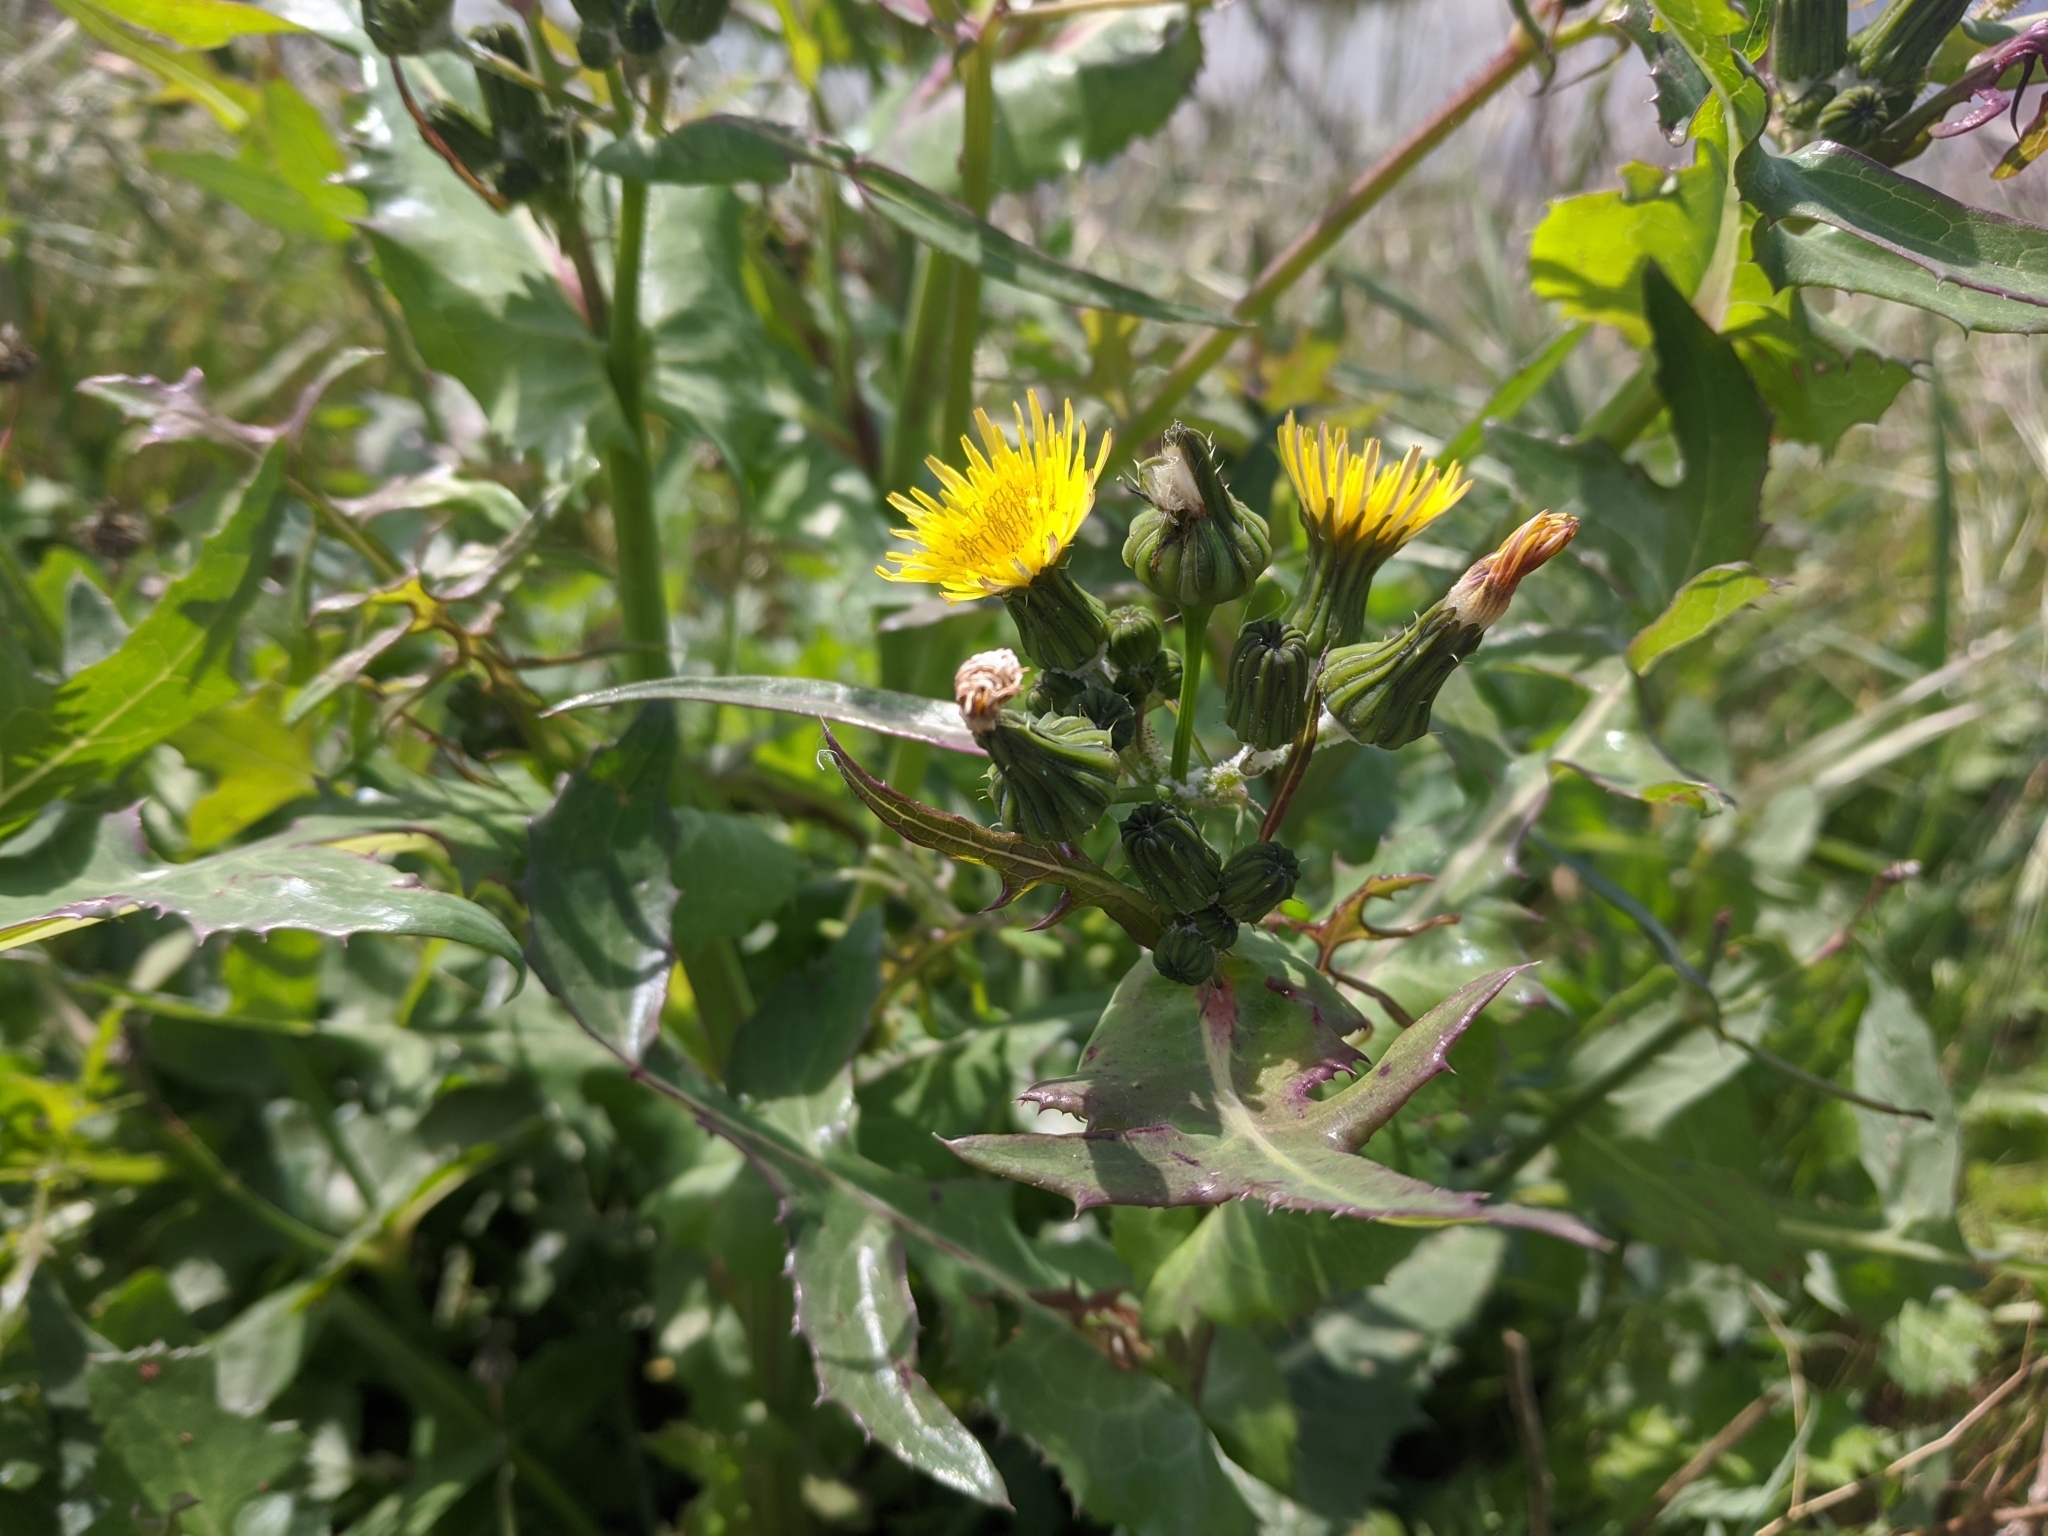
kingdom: Plantae
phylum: Tracheophyta
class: Magnoliopsida
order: Asterales
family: Asteraceae
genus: Sonchus
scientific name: Sonchus oleraceus
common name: Common sowthistle
